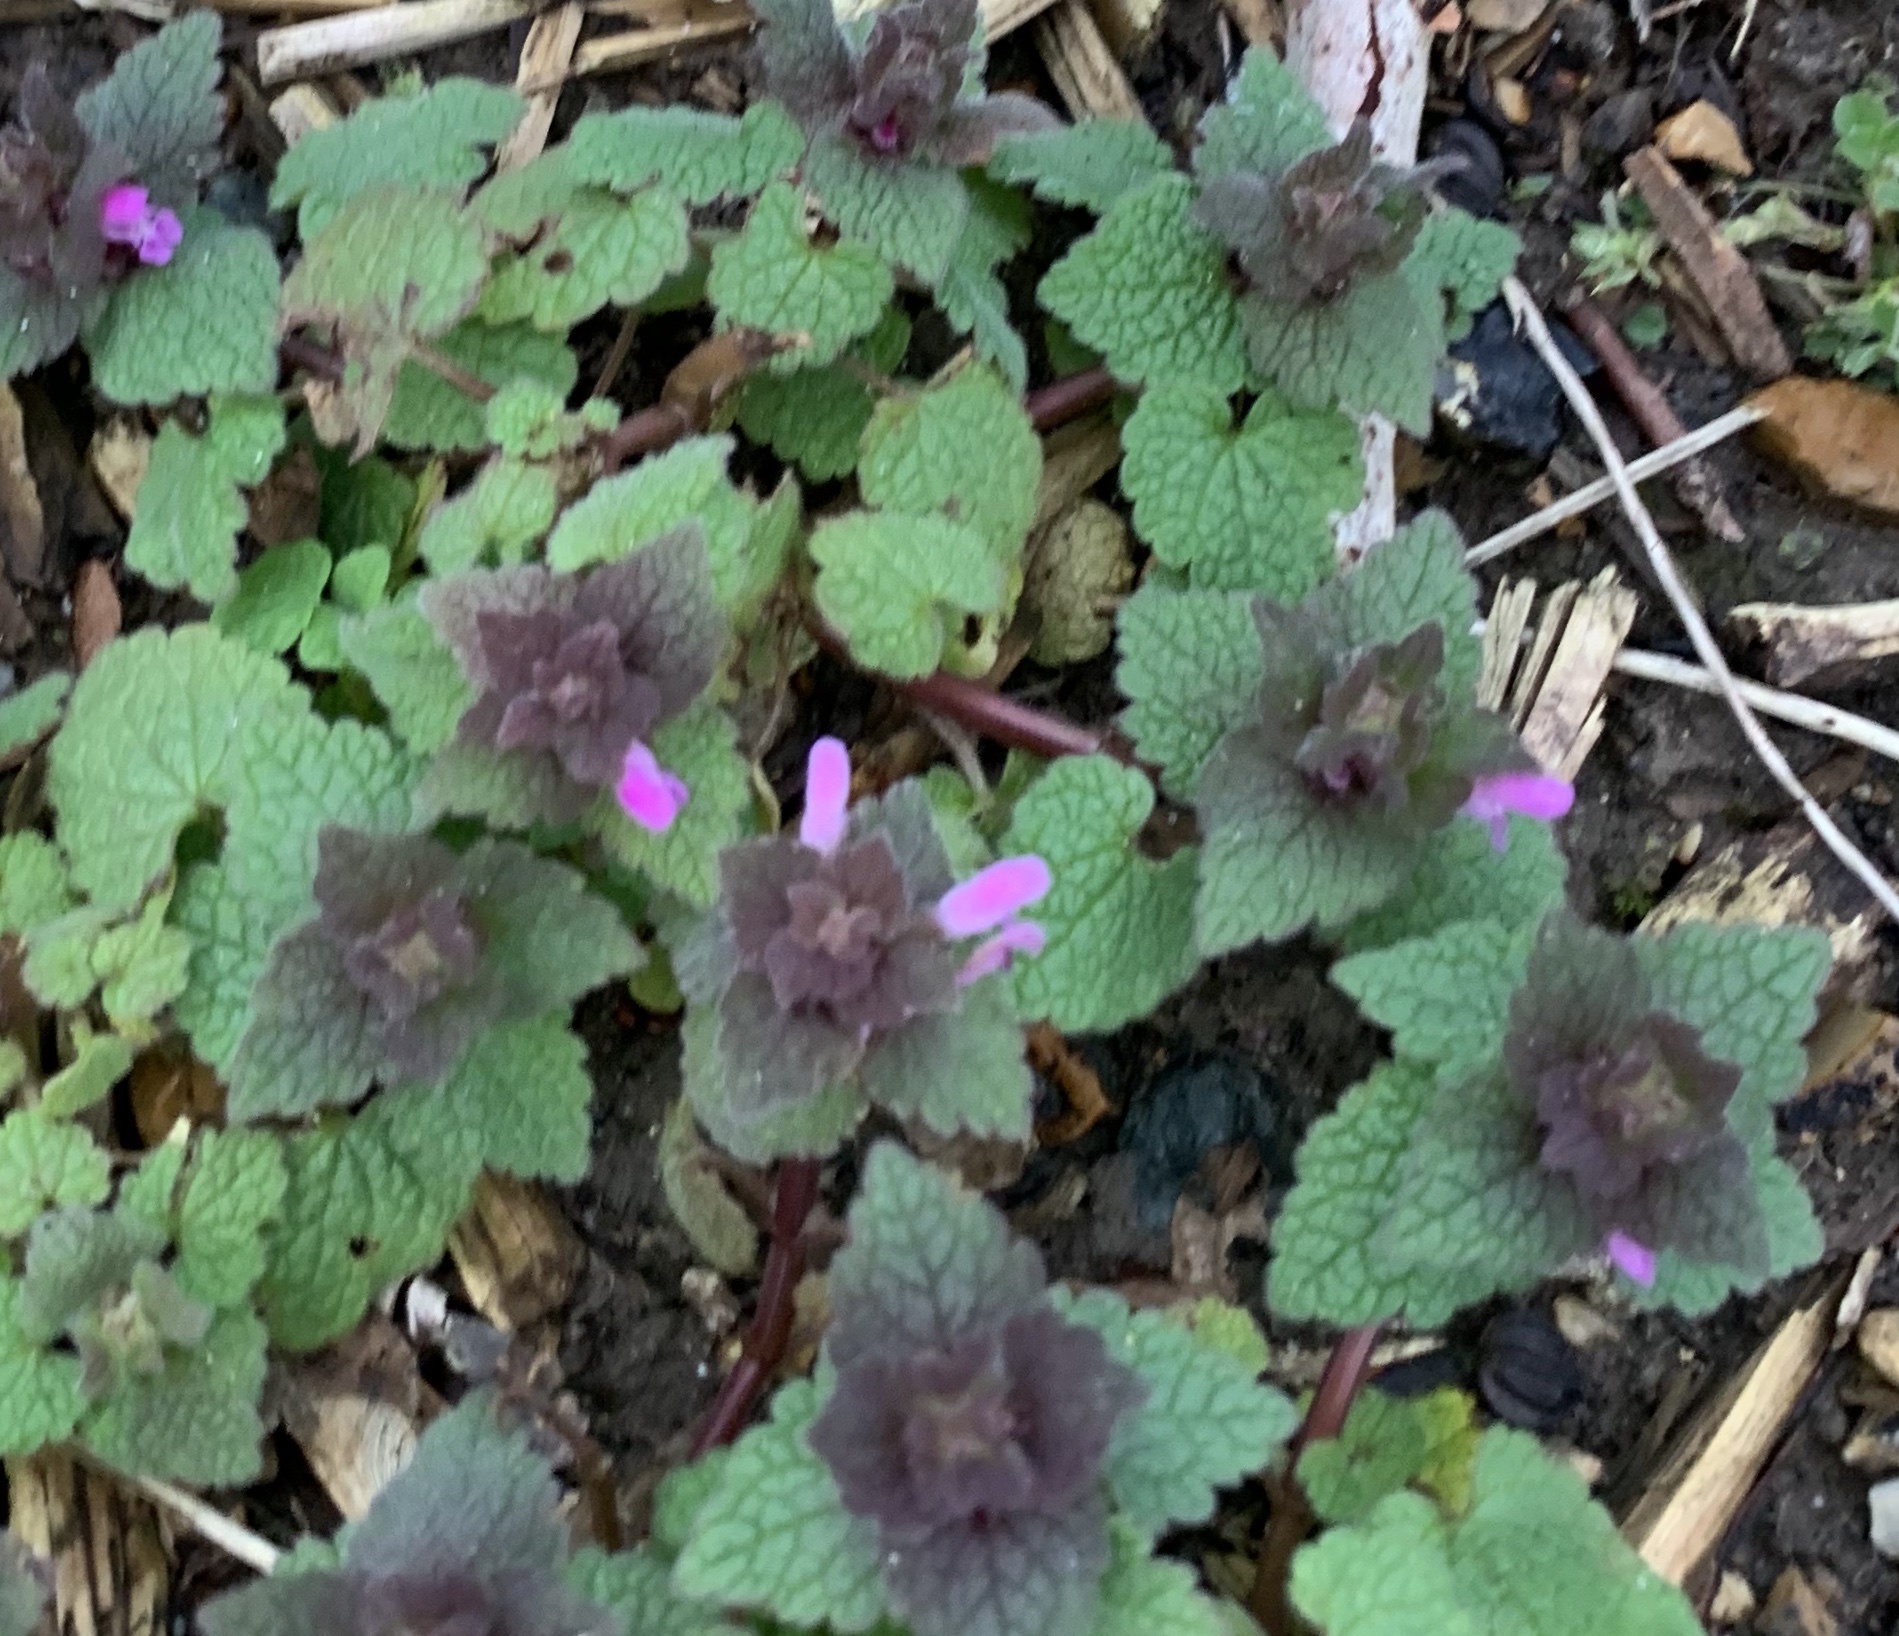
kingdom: Plantae
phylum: Tracheophyta
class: Magnoliopsida
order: Lamiales
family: Lamiaceae
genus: Lamium
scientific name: Lamium purpureum
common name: Red dead-nettle
